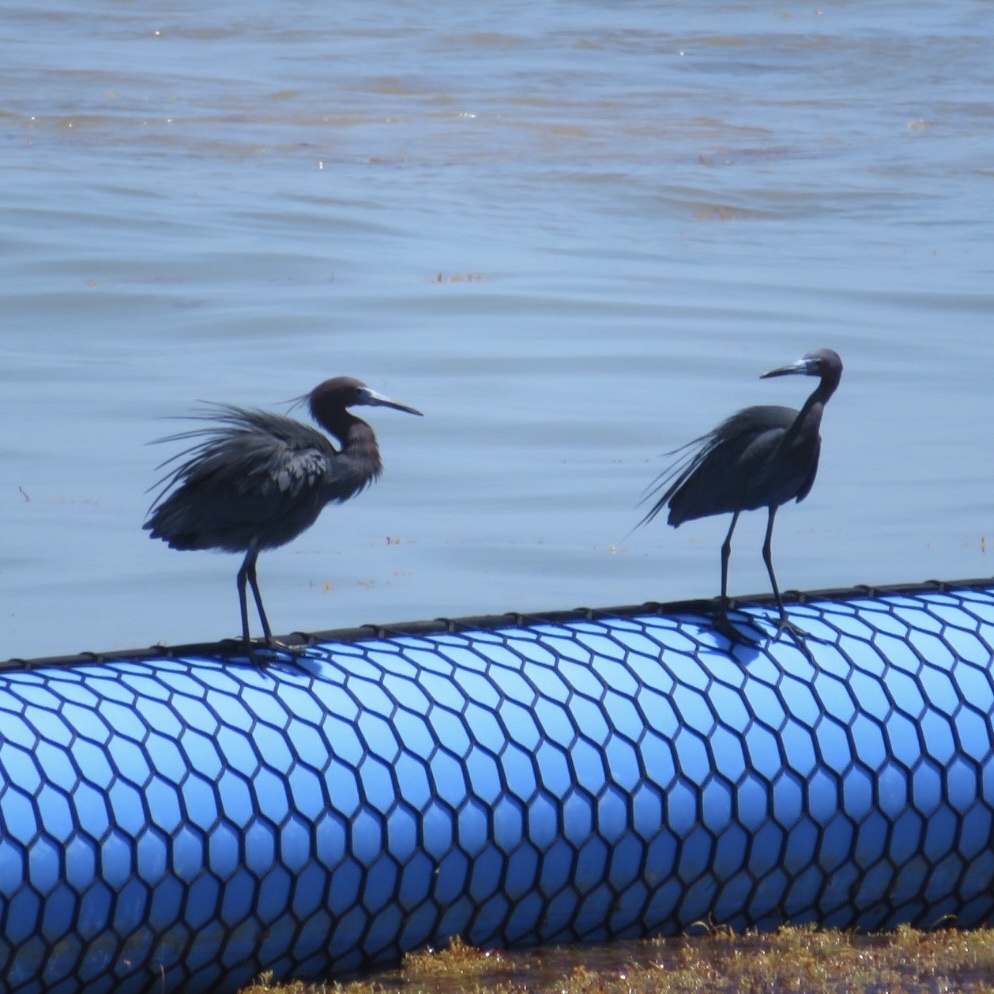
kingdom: Animalia
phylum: Chordata
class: Aves
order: Pelecaniformes
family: Ardeidae
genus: Egretta
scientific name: Egretta rufescens
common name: Reddish egret
